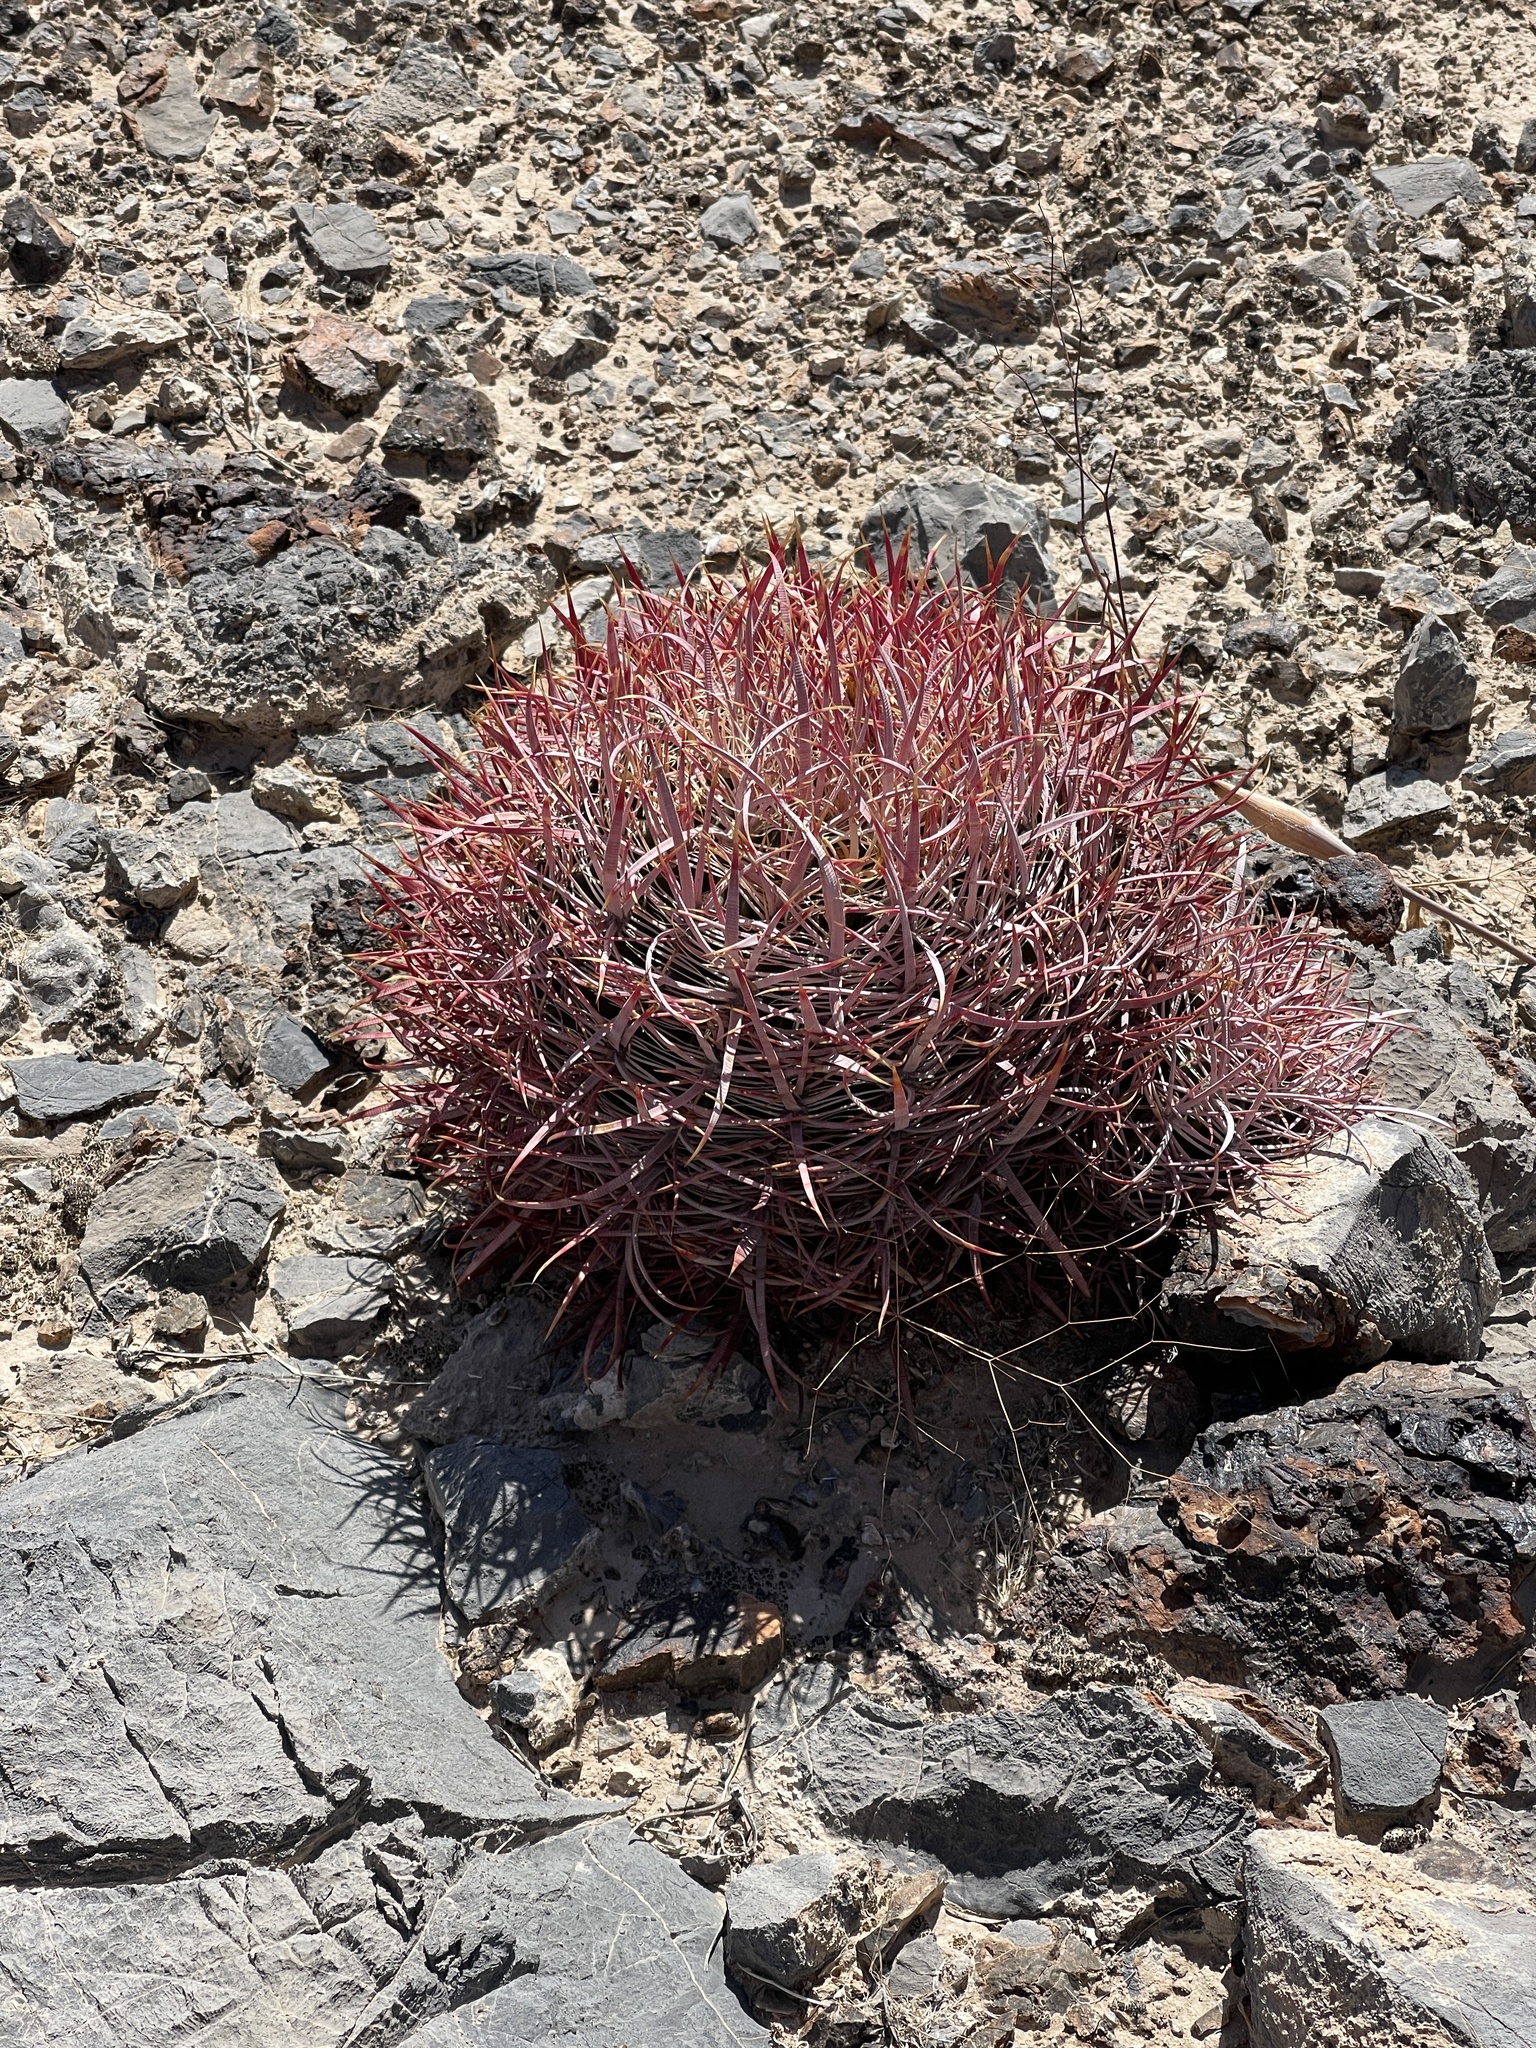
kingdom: Plantae
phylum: Tracheophyta
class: Magnoliopsida
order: Caryophyllales
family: Cactaceae
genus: Ferocactus
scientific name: Ferocactus cylindraceus
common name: California barrel cactus
